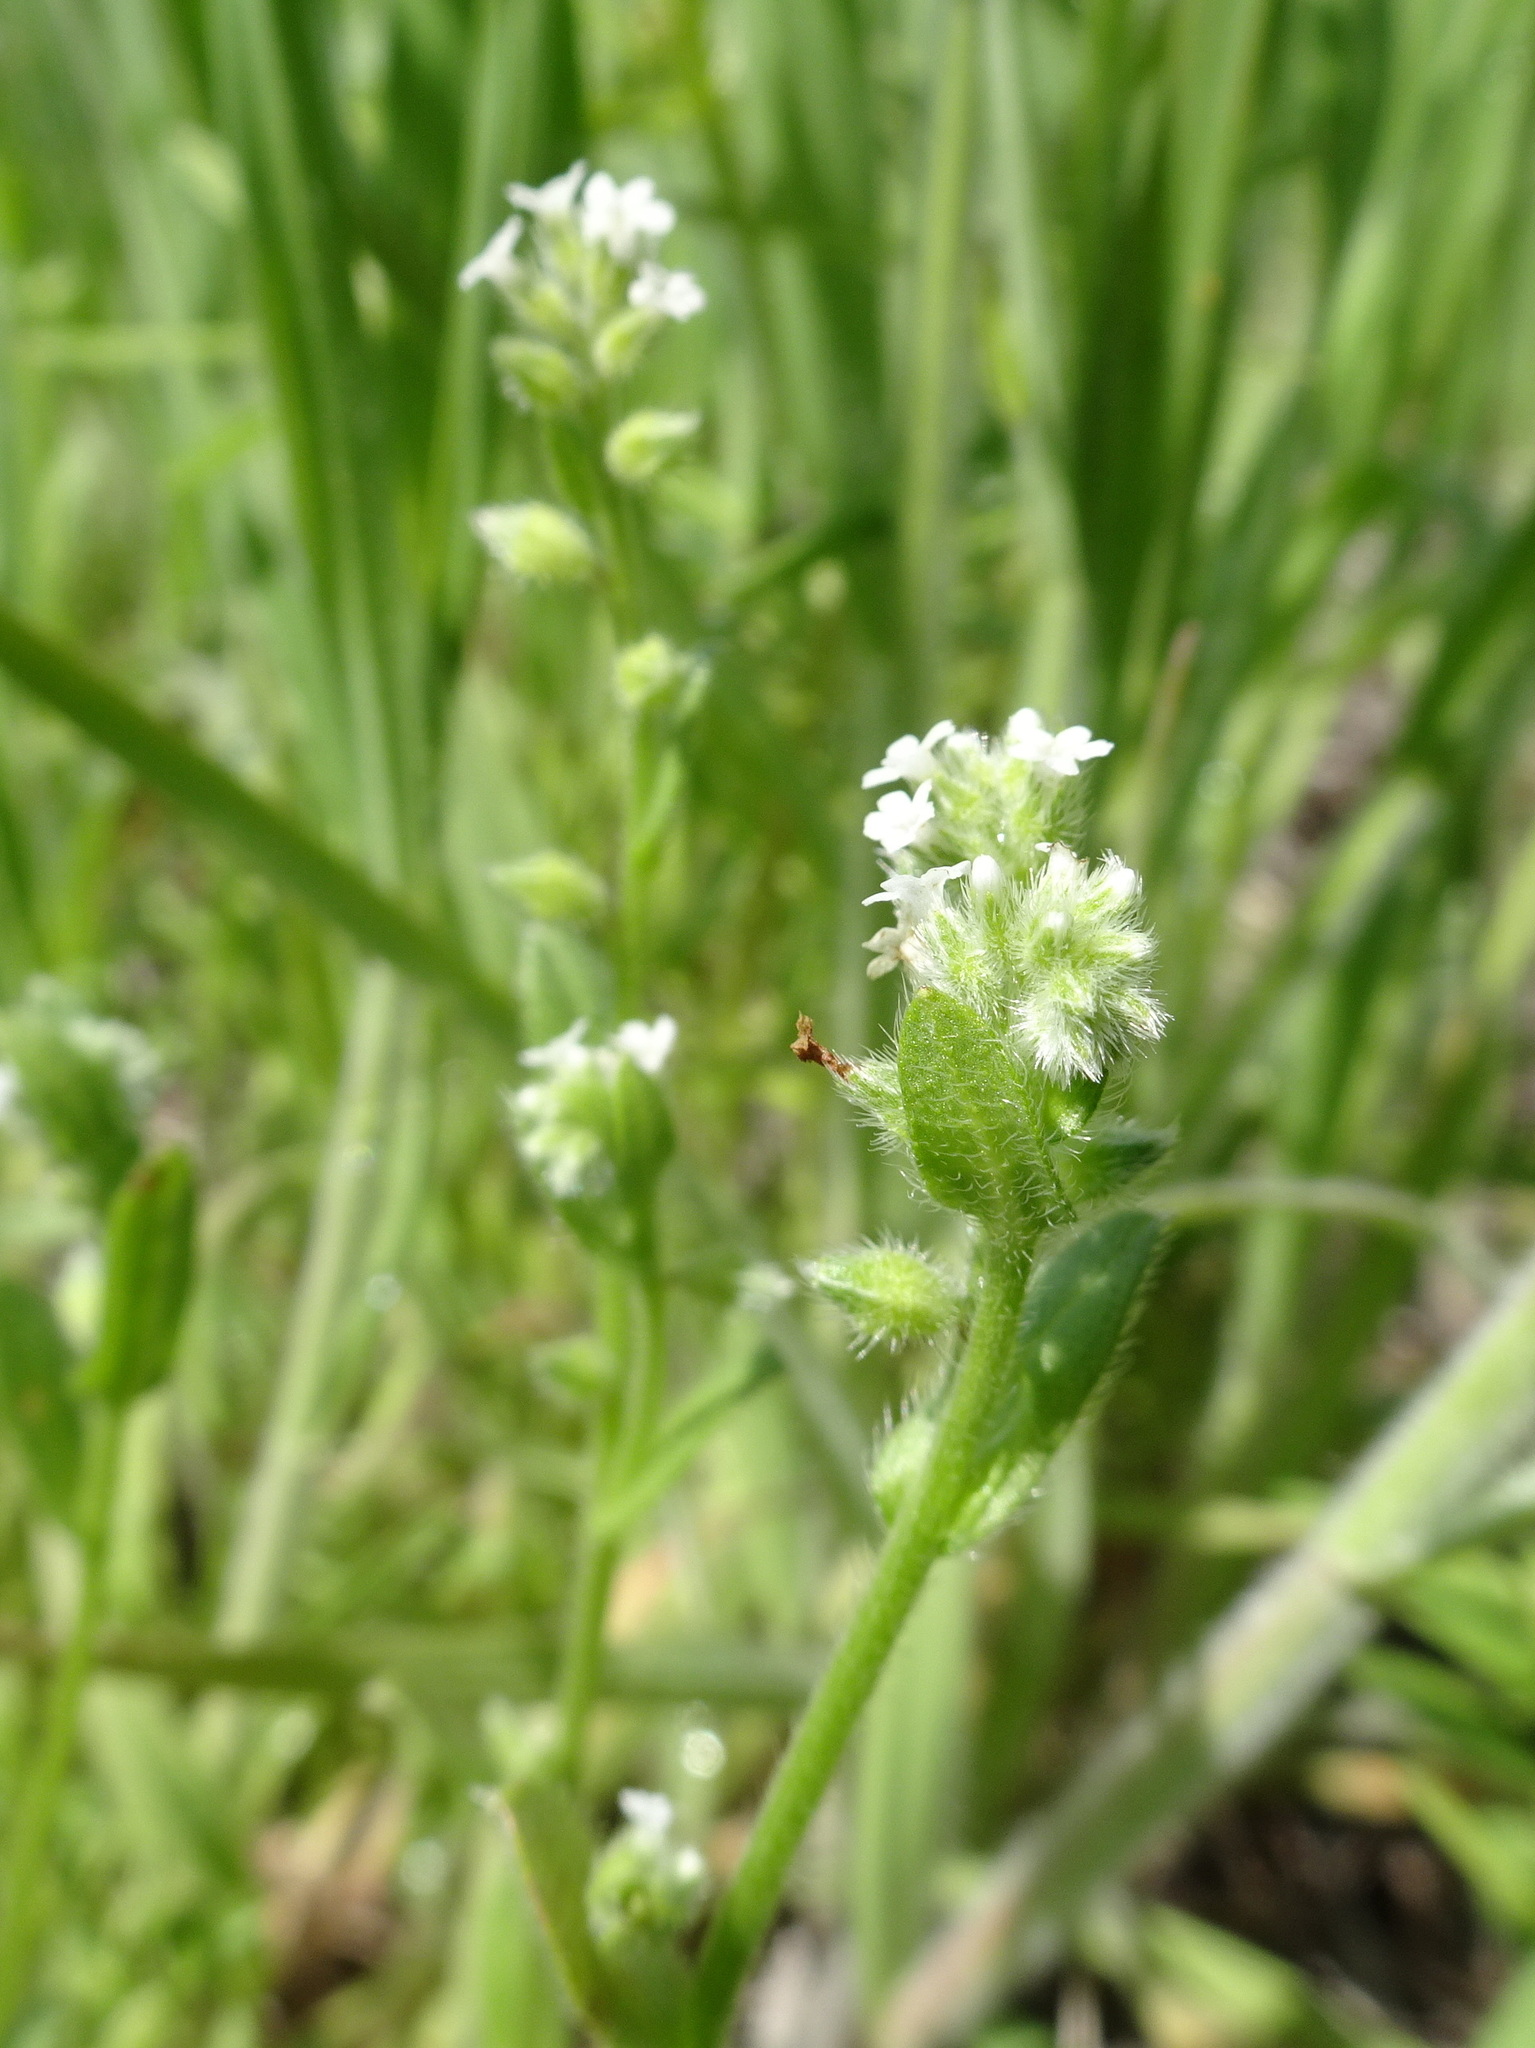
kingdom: Plantae
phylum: Tracheophyta
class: Magnoliopsida
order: Boraginales
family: Boraginaceae
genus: Myosotis
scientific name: Myosotis verna
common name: Early forget-me-not
